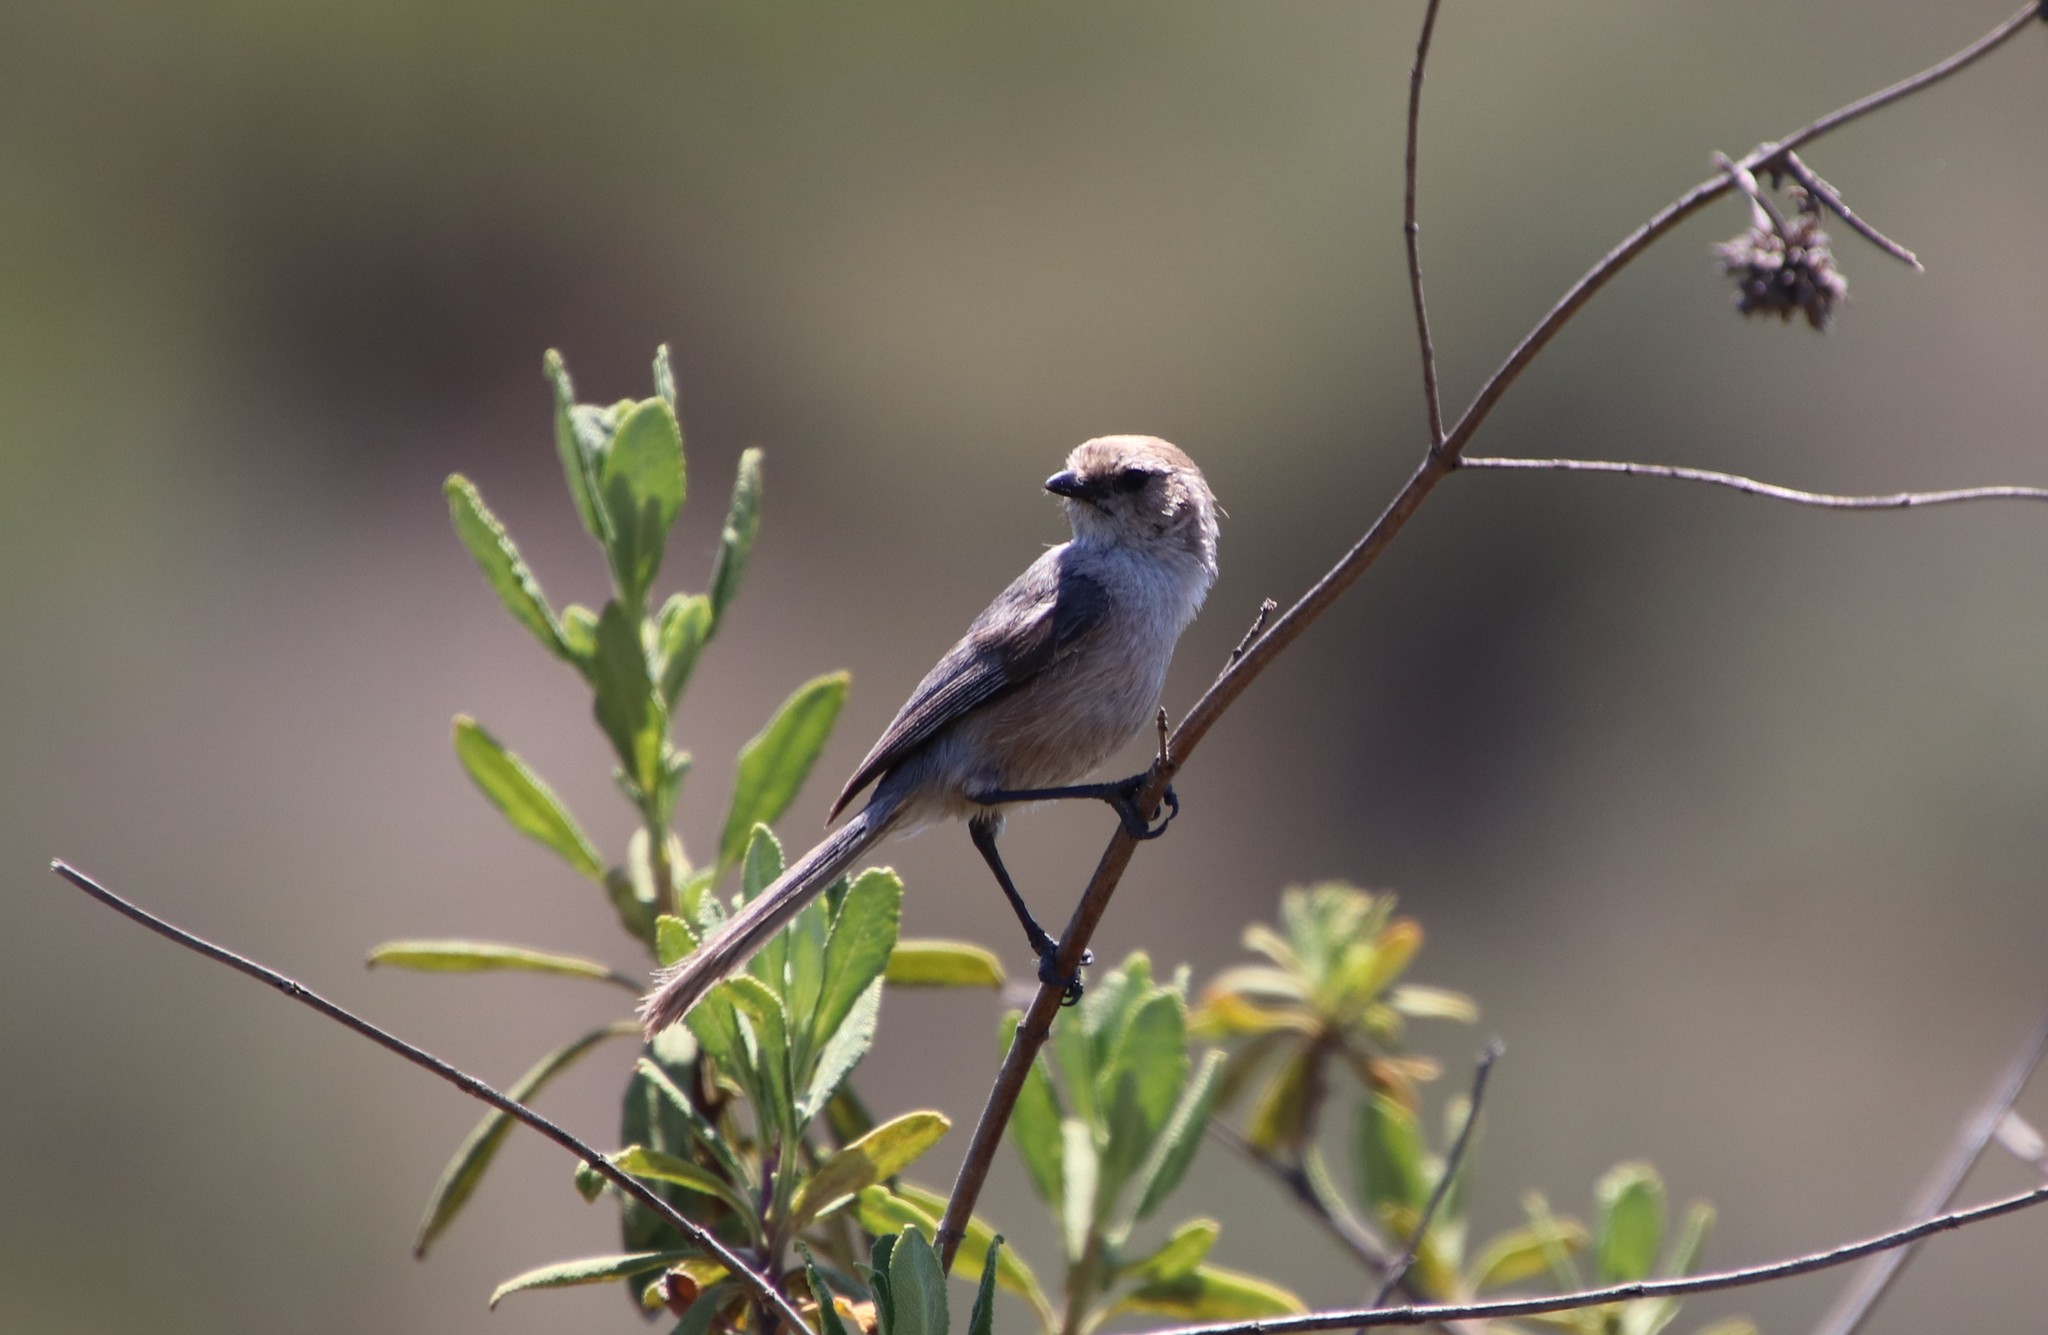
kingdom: Animalia
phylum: Chordata
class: Aves
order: Passeriformes
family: Aegithalidae
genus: Psaltriparus
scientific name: Psaltriparus minimus
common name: American bushtit
